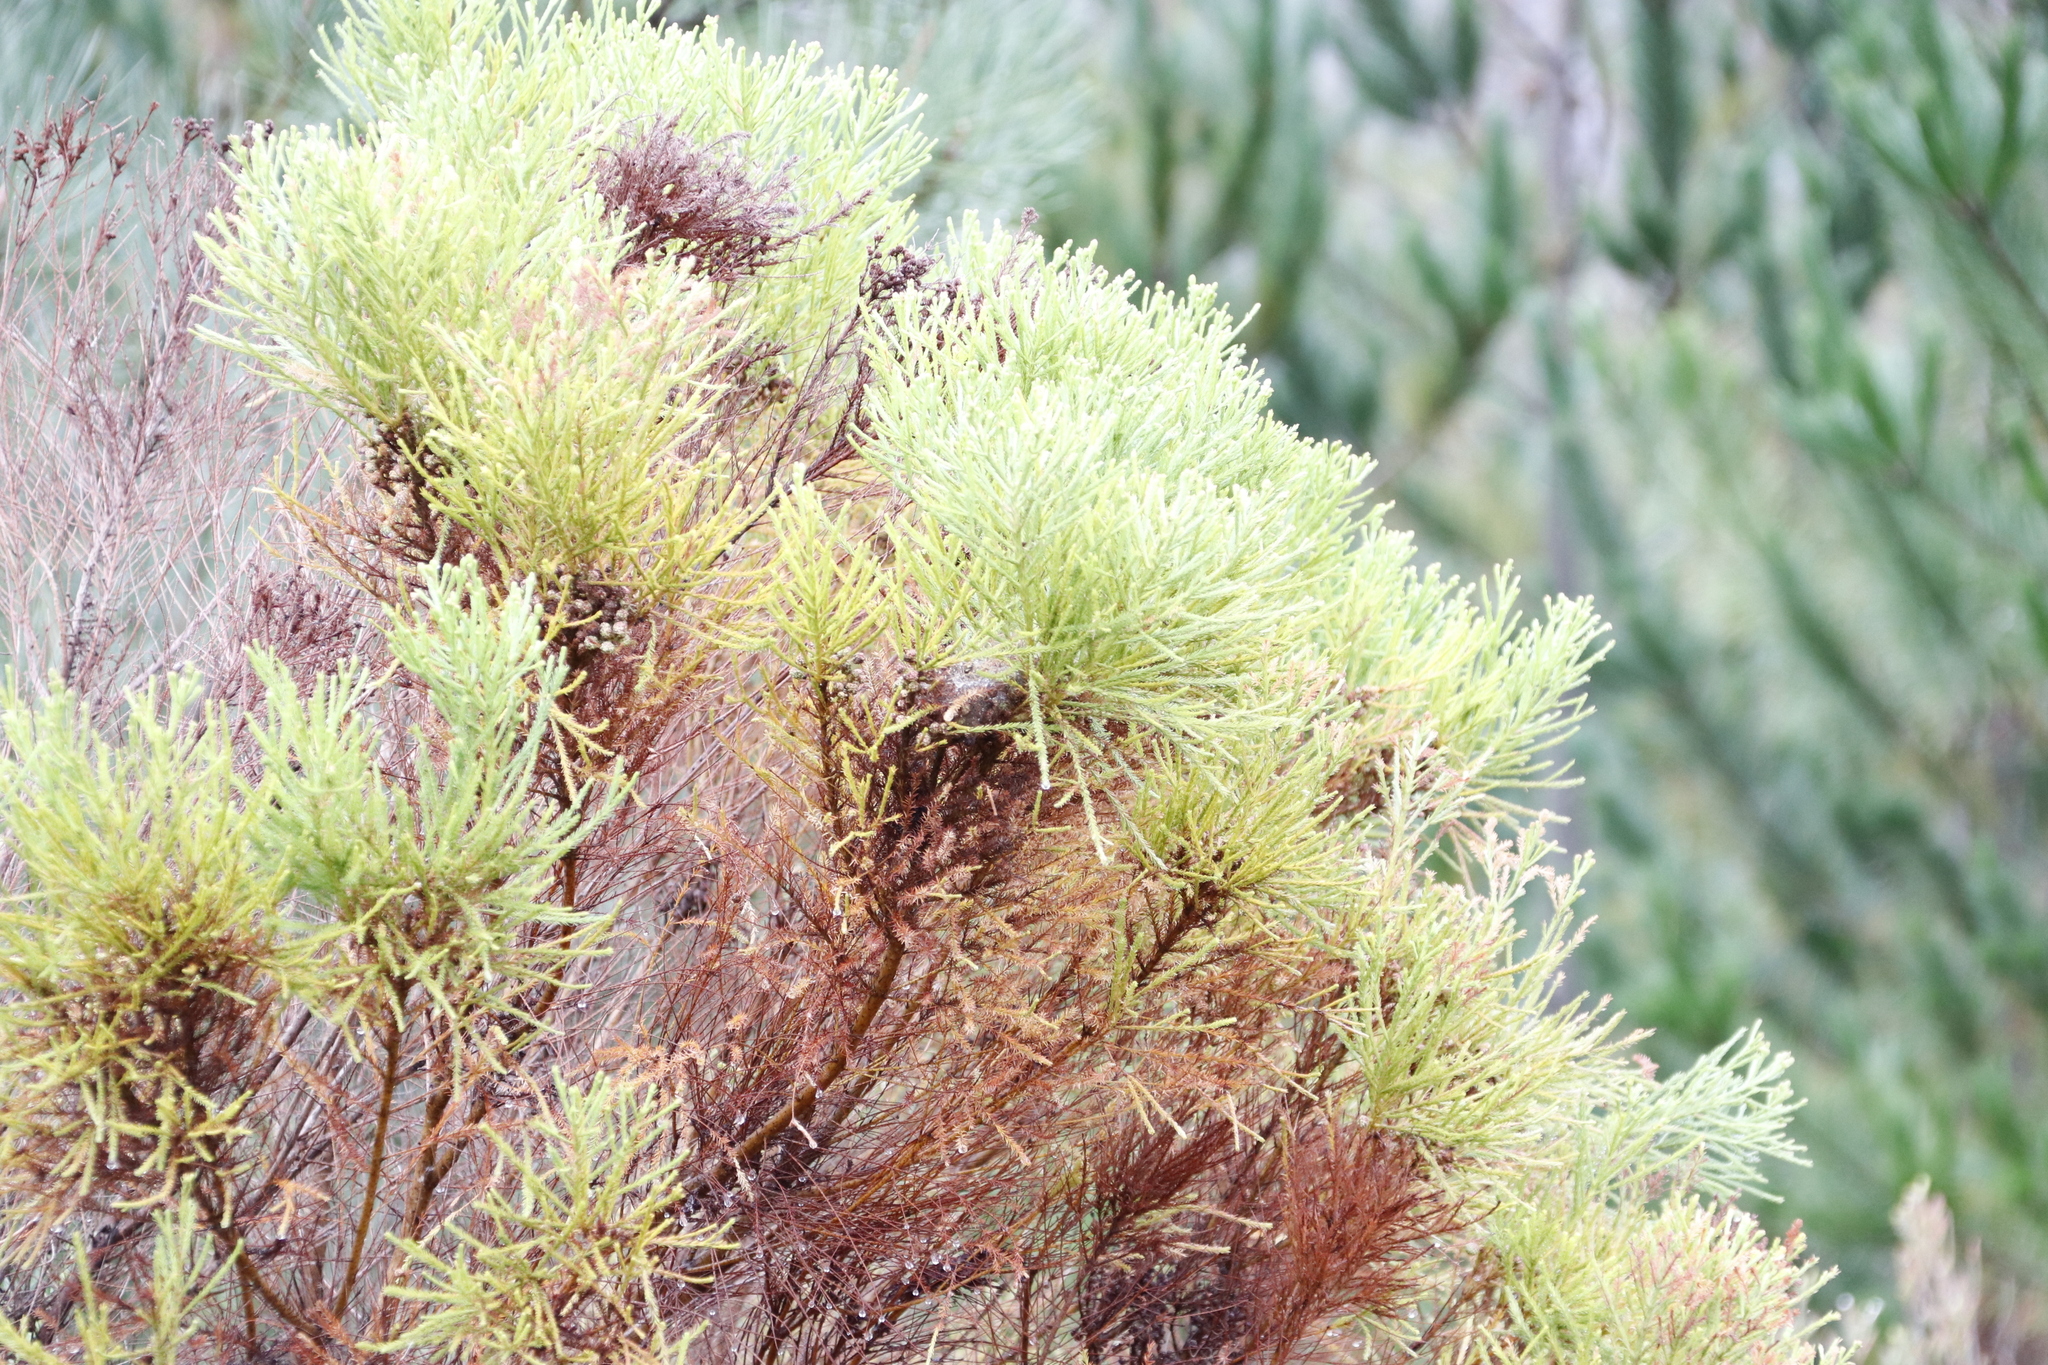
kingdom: Plantae
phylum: Tracheophyta
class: Magnoliopsida
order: Bruniales
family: Bruniaceae
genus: Berzelia
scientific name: Berzelia lanuginosa
